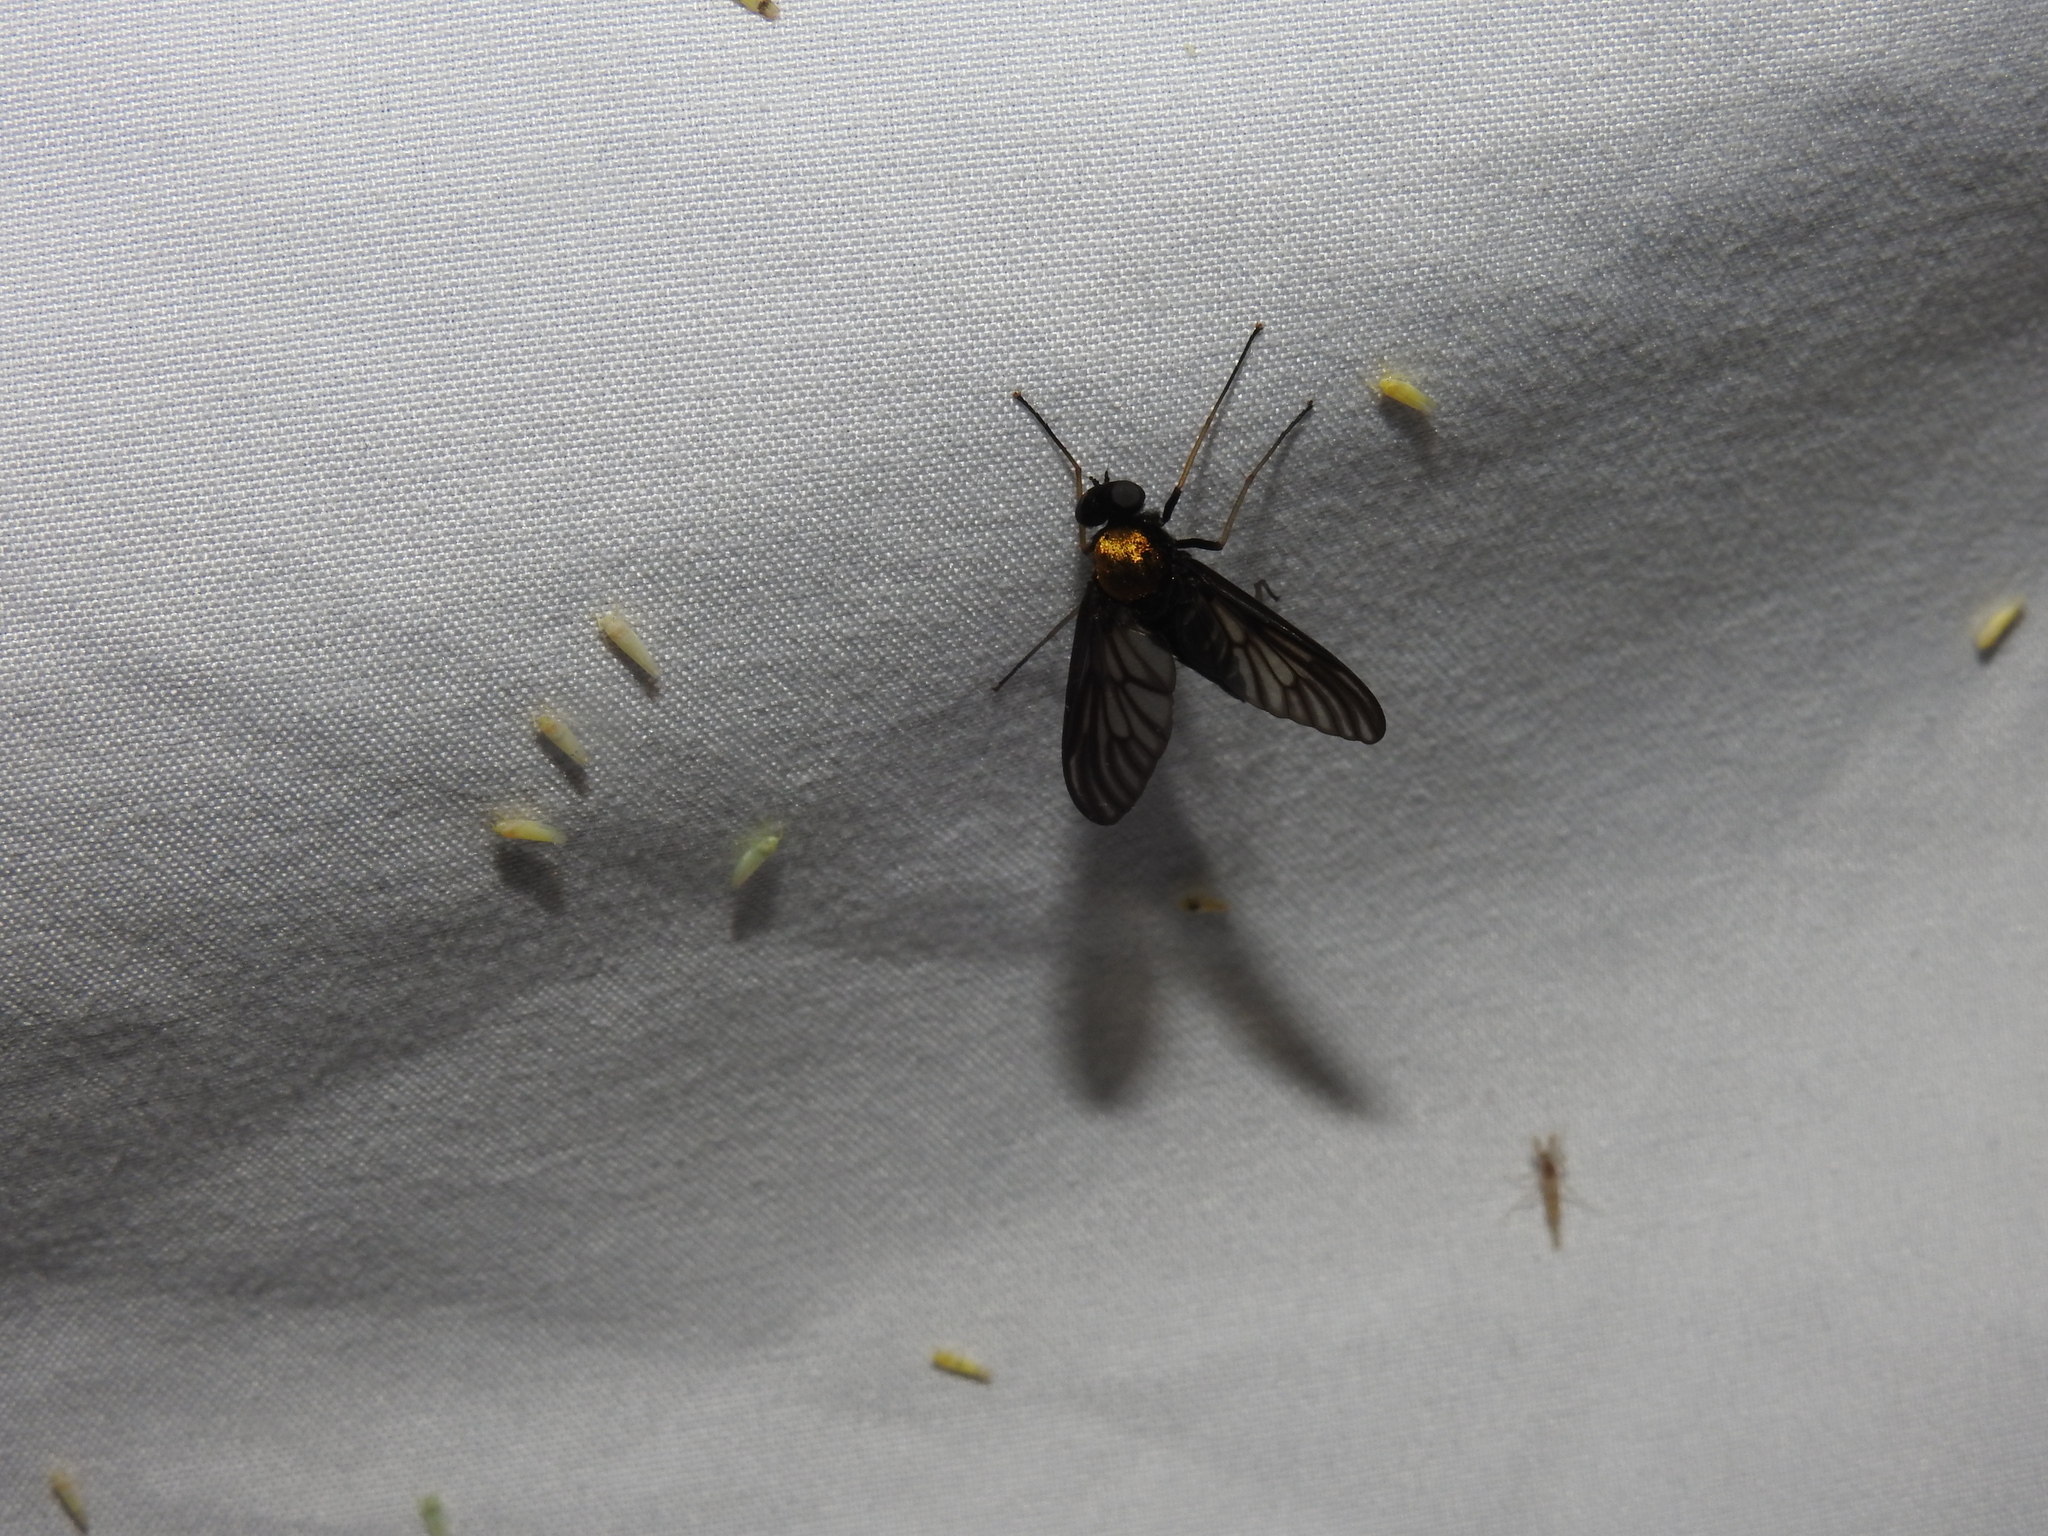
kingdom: Animalia
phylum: Arthropoda
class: Insecta
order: Diptera
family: Rhagionidae
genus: Chrysopilus
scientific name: Chrysopilus thoracicus
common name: Golden-backed snipe fly
